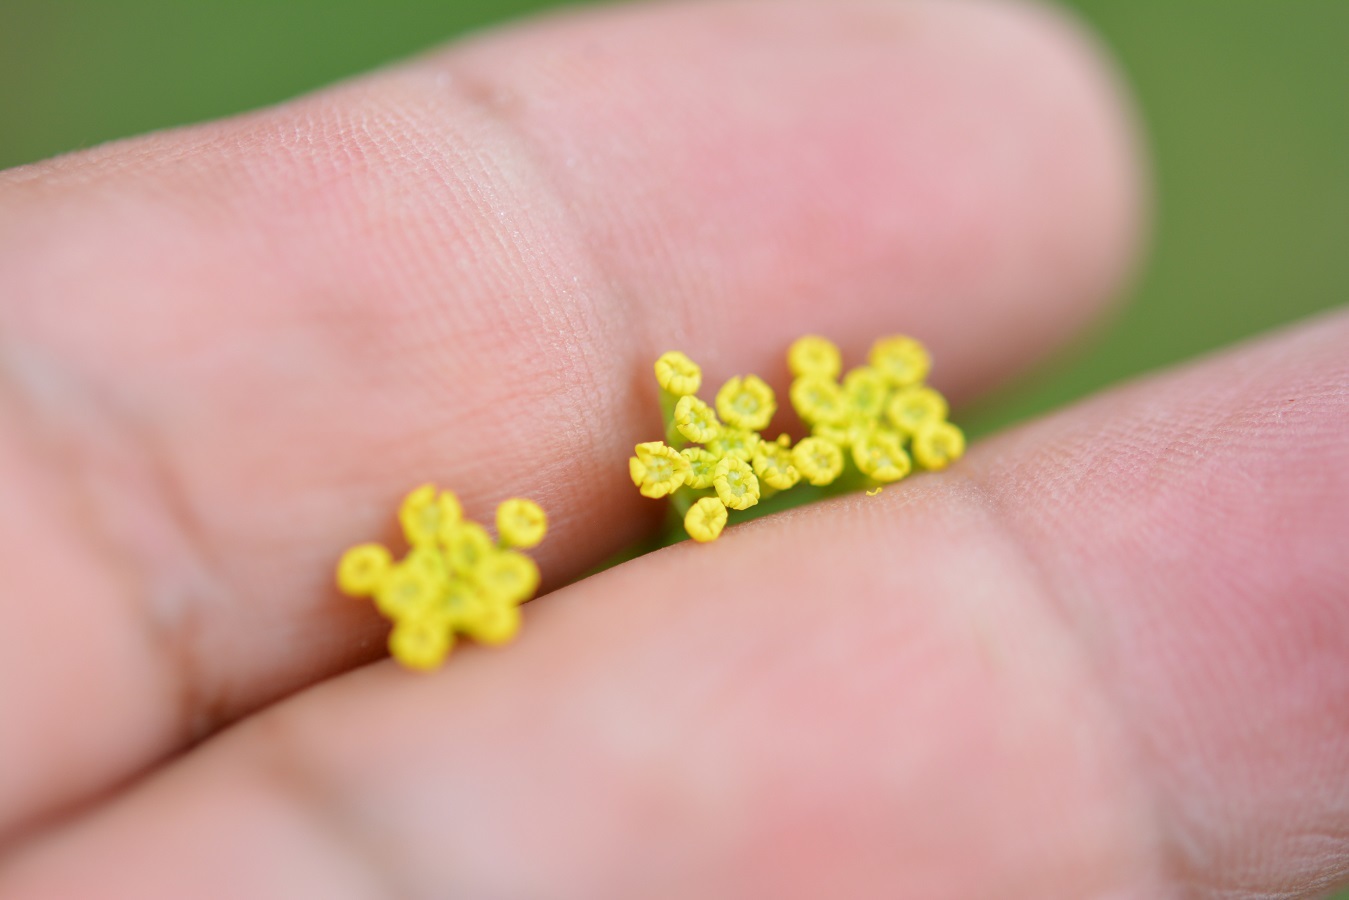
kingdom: Plantae
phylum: Tracheophyta
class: Magnoliopsida
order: Apiales
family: Apiaceae
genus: Donnellsmithia
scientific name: Donnellsmithia juncea
